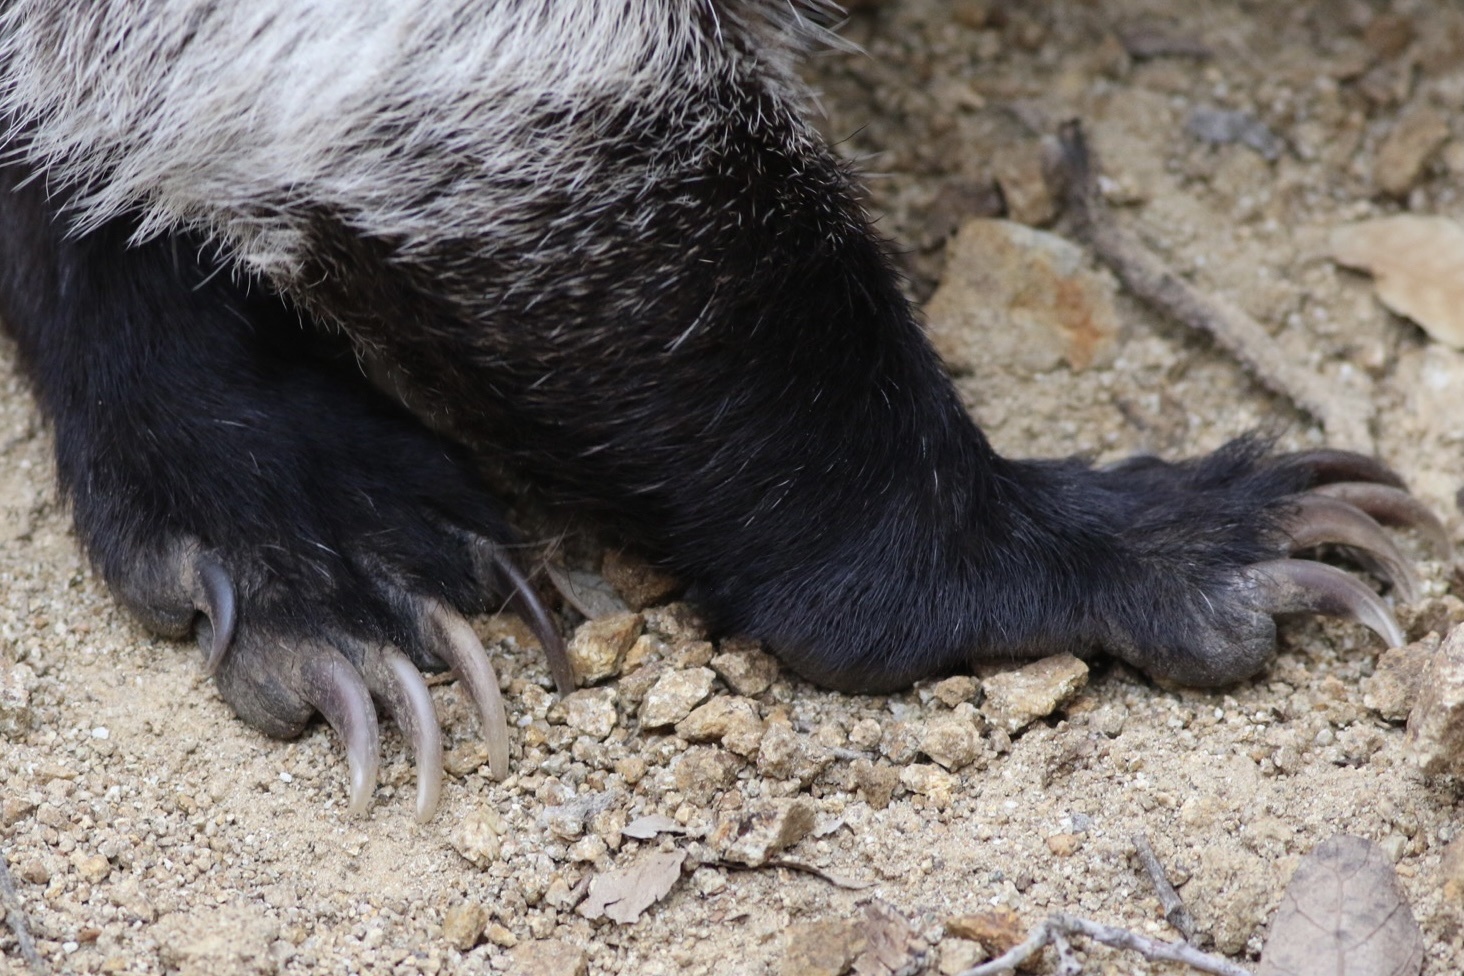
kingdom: Animalia
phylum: Chordata
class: Mammalia
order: Carnivora
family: Procyonidae
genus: Nasua
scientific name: Nasua narica
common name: White-nosed coati
